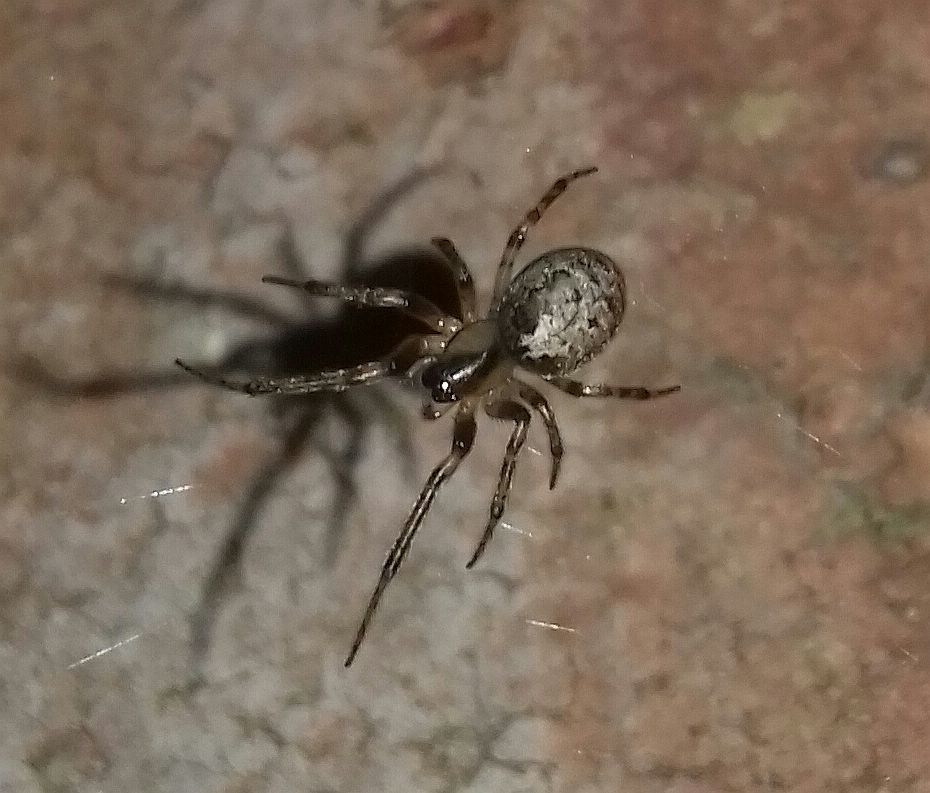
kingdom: Animalia
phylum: Arthropoda
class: Arachnida
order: Araneae
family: Araneidae
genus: Zygiella
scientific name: Zygiella x-notata
